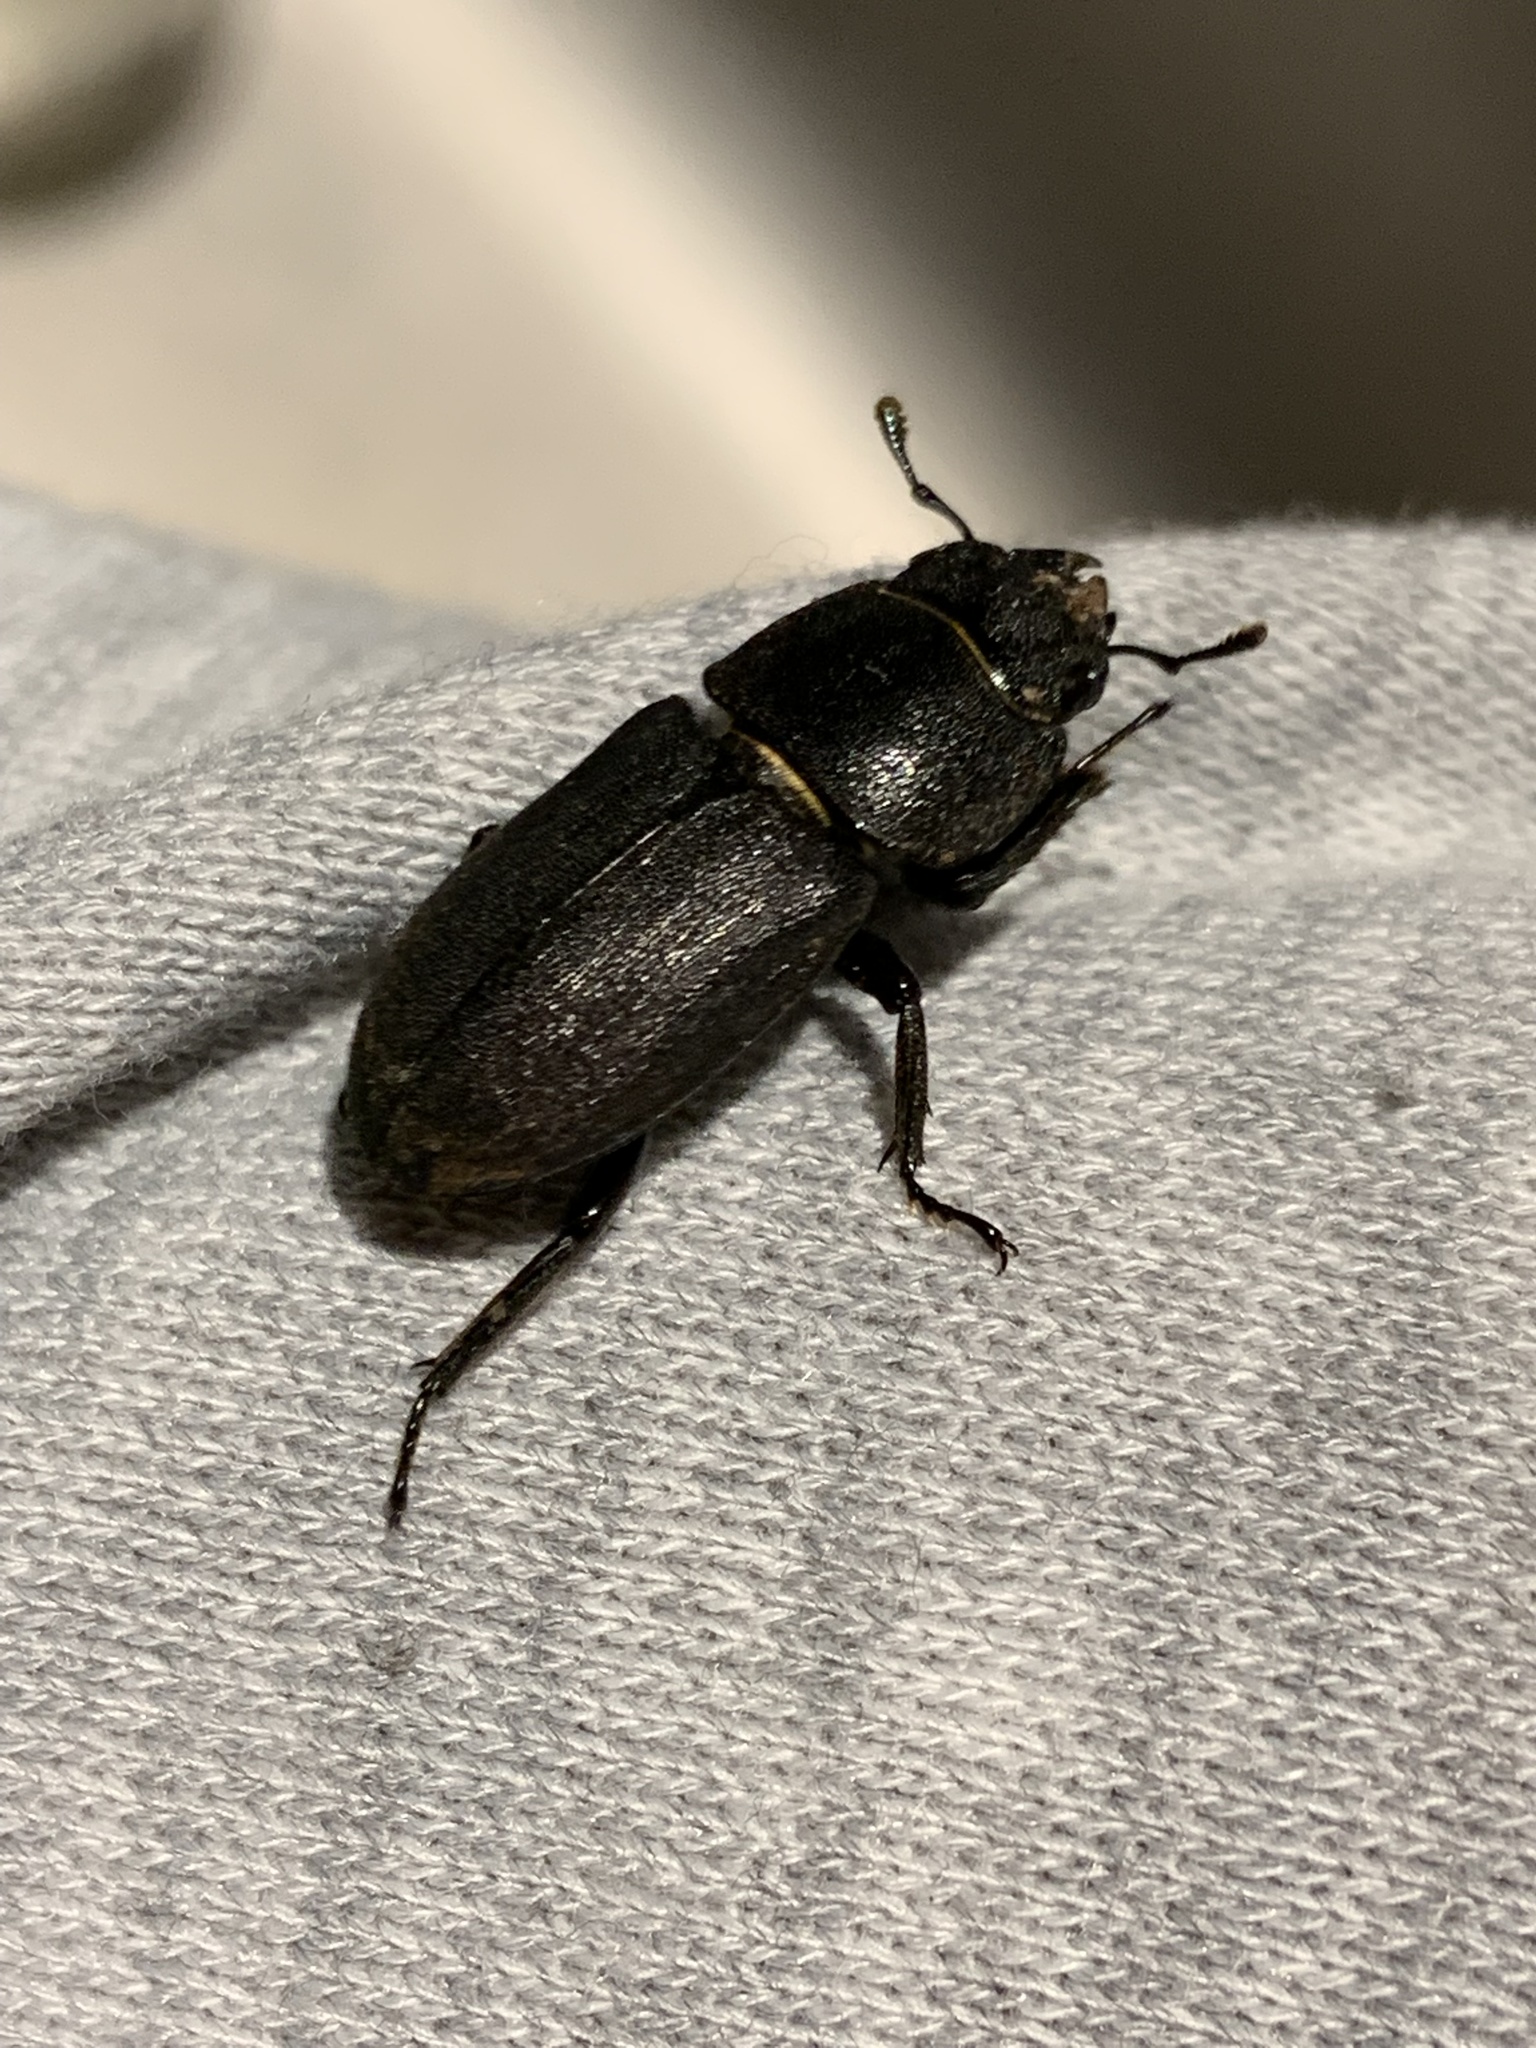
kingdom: Animalia
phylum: Arthropoda
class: Insecta
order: Coleoptera
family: Lucanidae
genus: Dorcus
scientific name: Dorcus parallelipipedus
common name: Lesser stag beetle
